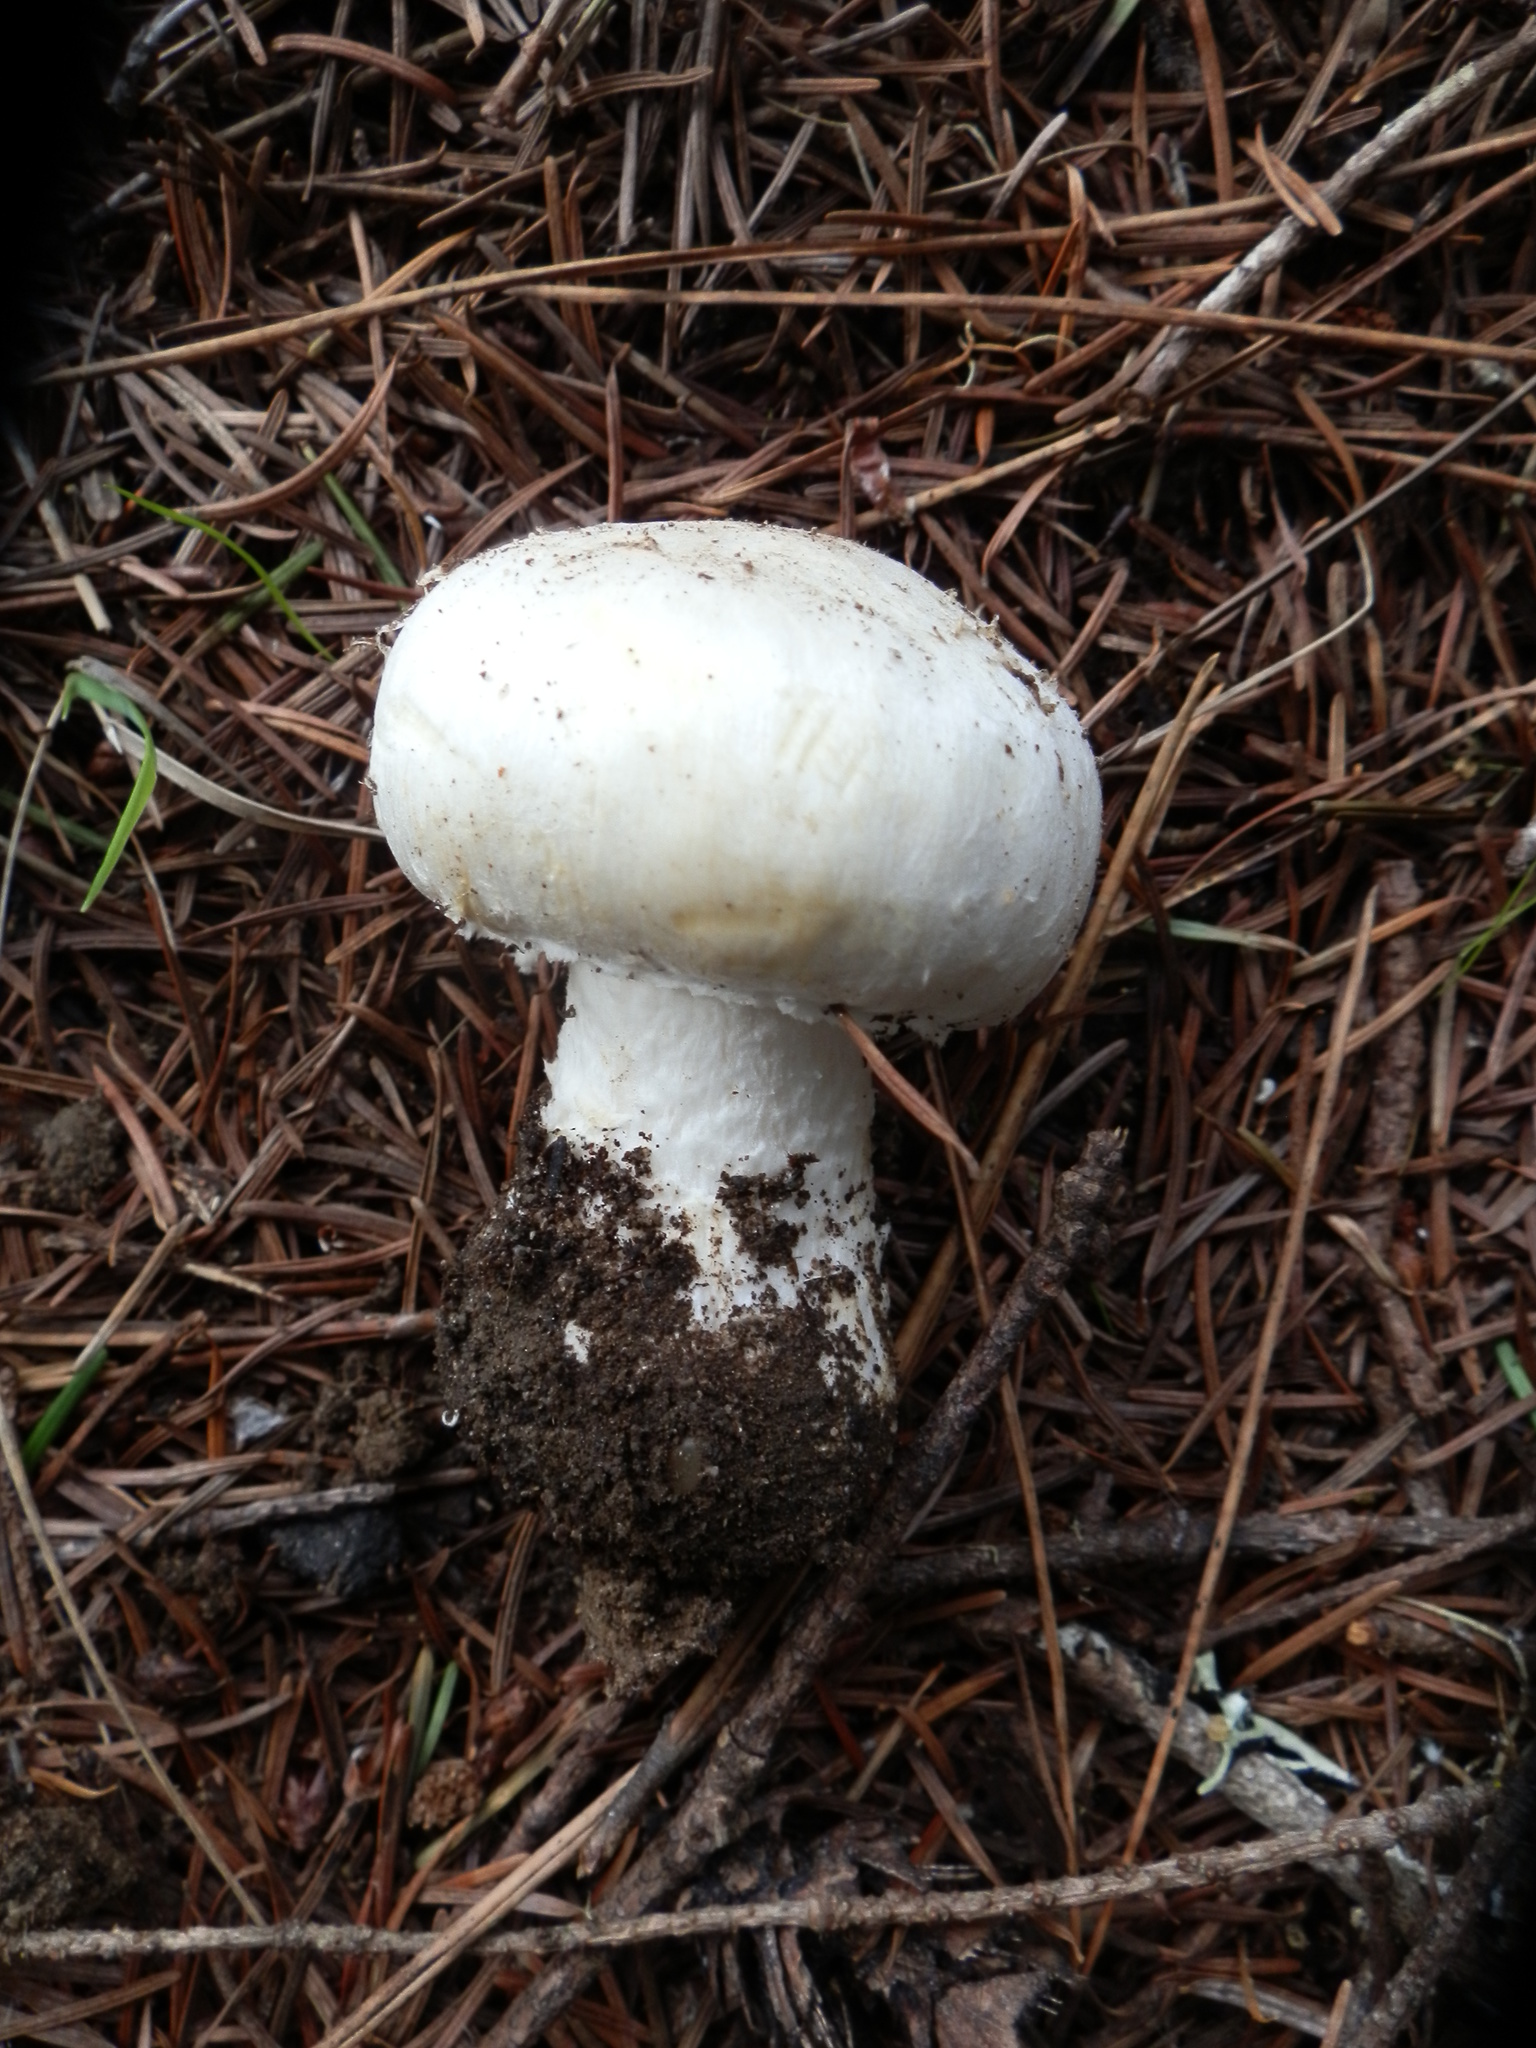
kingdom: Fungi
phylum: Basidiomycota
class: Agaricomycetes
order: Agaricales
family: Agaricaceae
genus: Agaricus
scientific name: Agaricus sylvicola
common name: Wood mushroom
